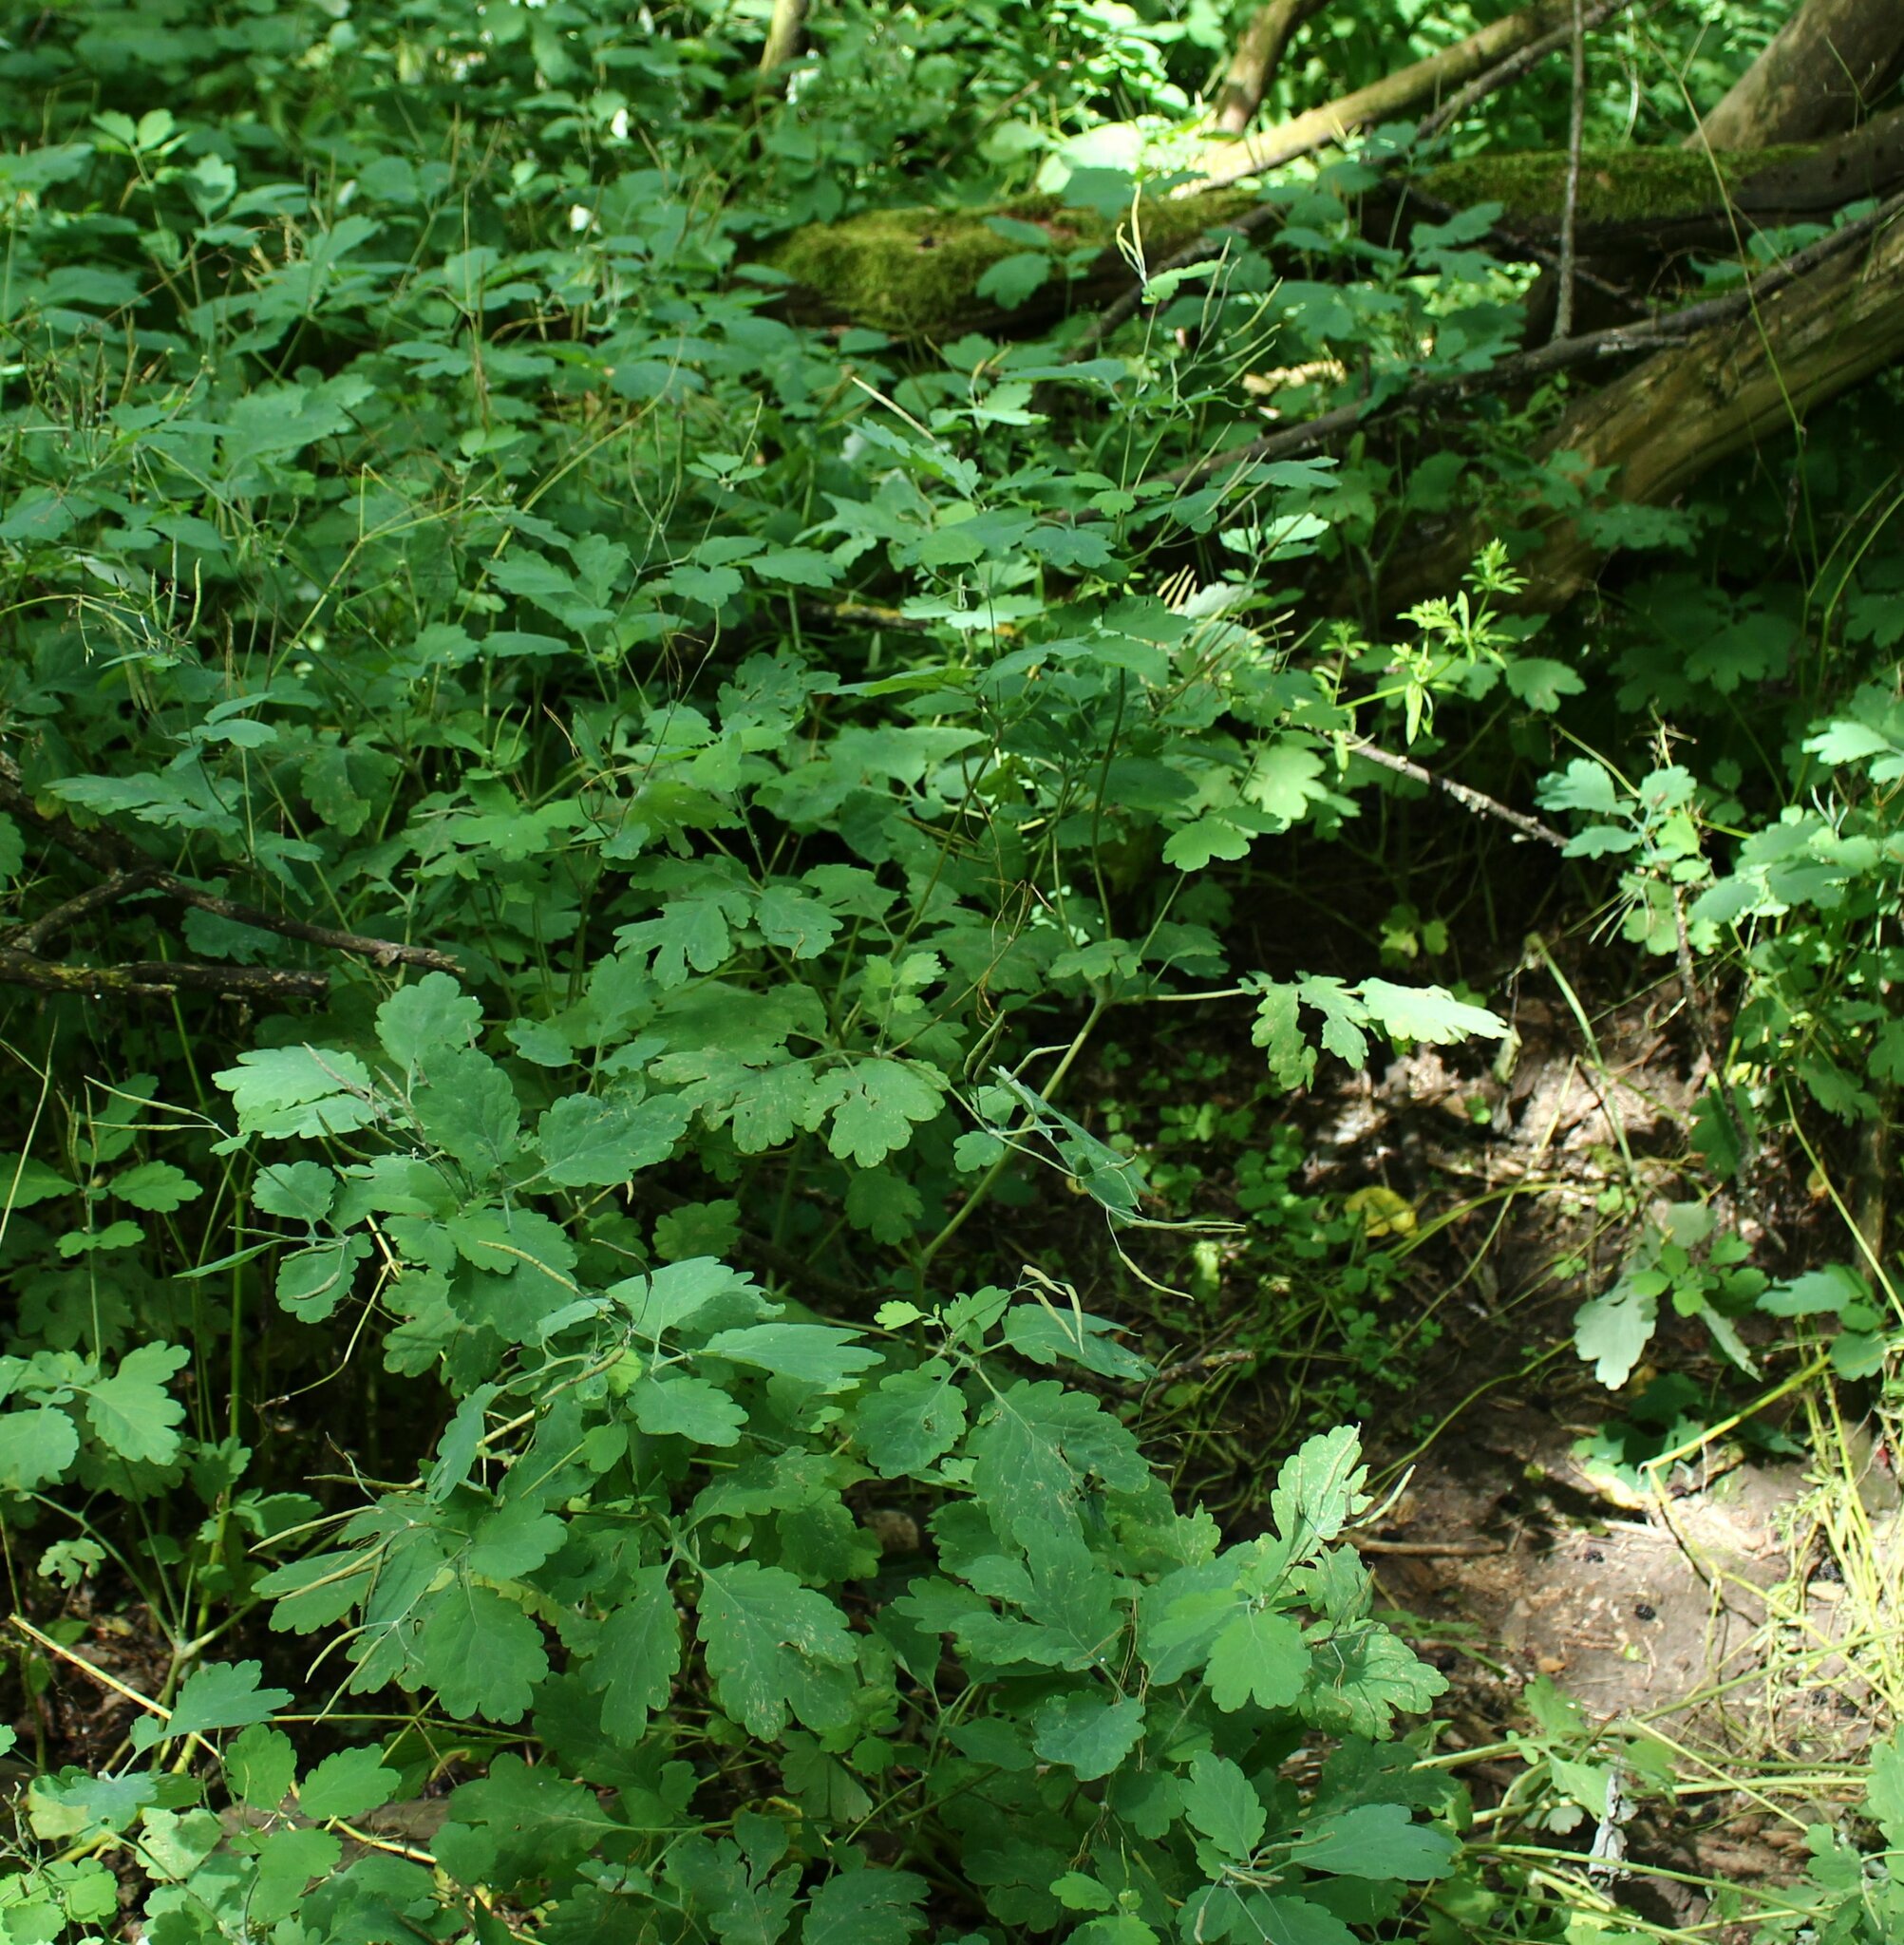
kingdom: Plantae
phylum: Tracheophyta
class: Magnoliopsida
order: Ranunculales
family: Papaveraceae
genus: Chelidonium
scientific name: Chelidonium majus
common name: Greater celandine
